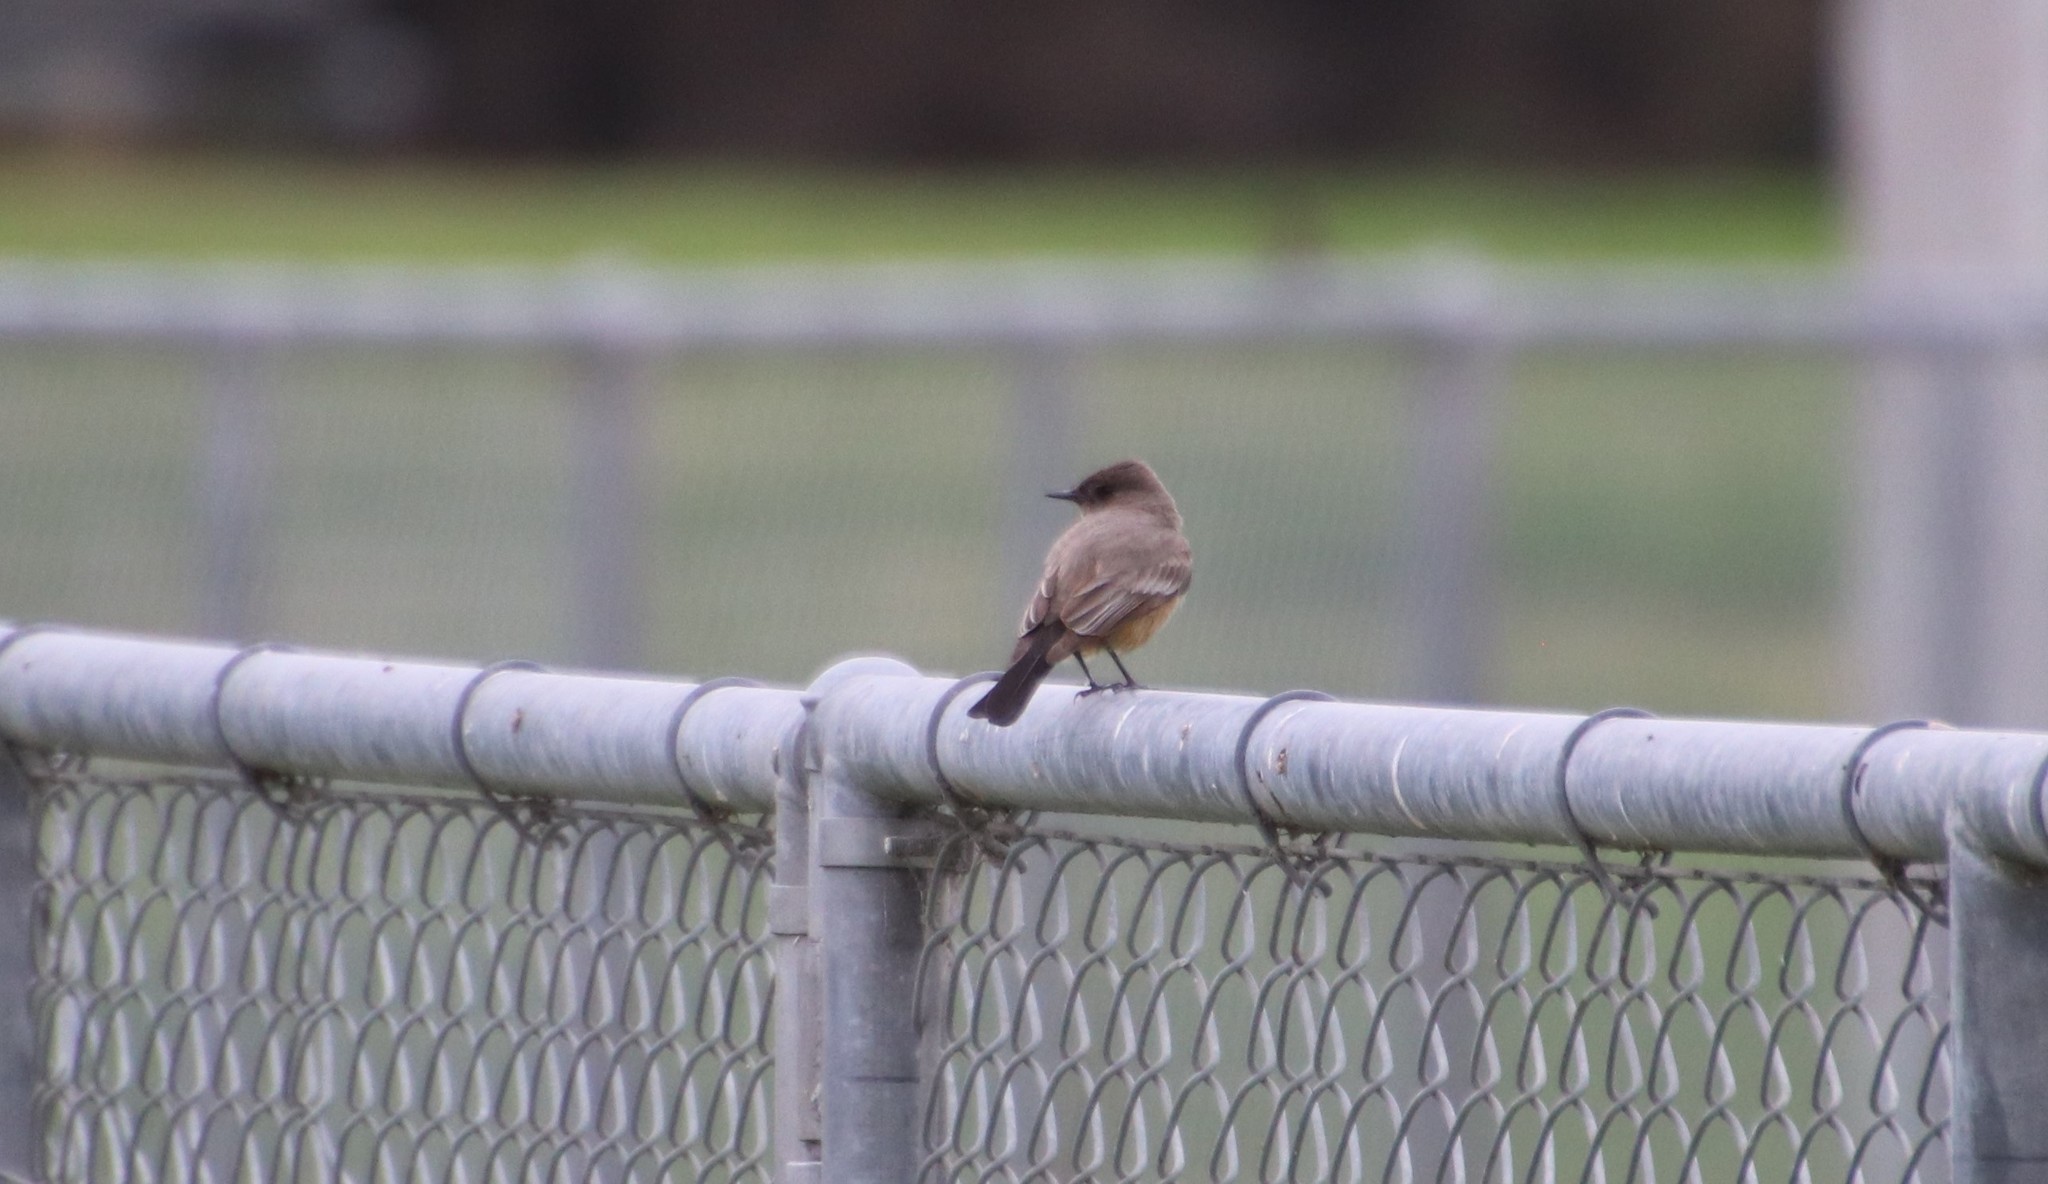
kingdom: Animalia
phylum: Chordata
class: Aves
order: Passeriformes
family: Tyrannidae
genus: Sayornis
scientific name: Sayornis saya
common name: Say's phoebe
